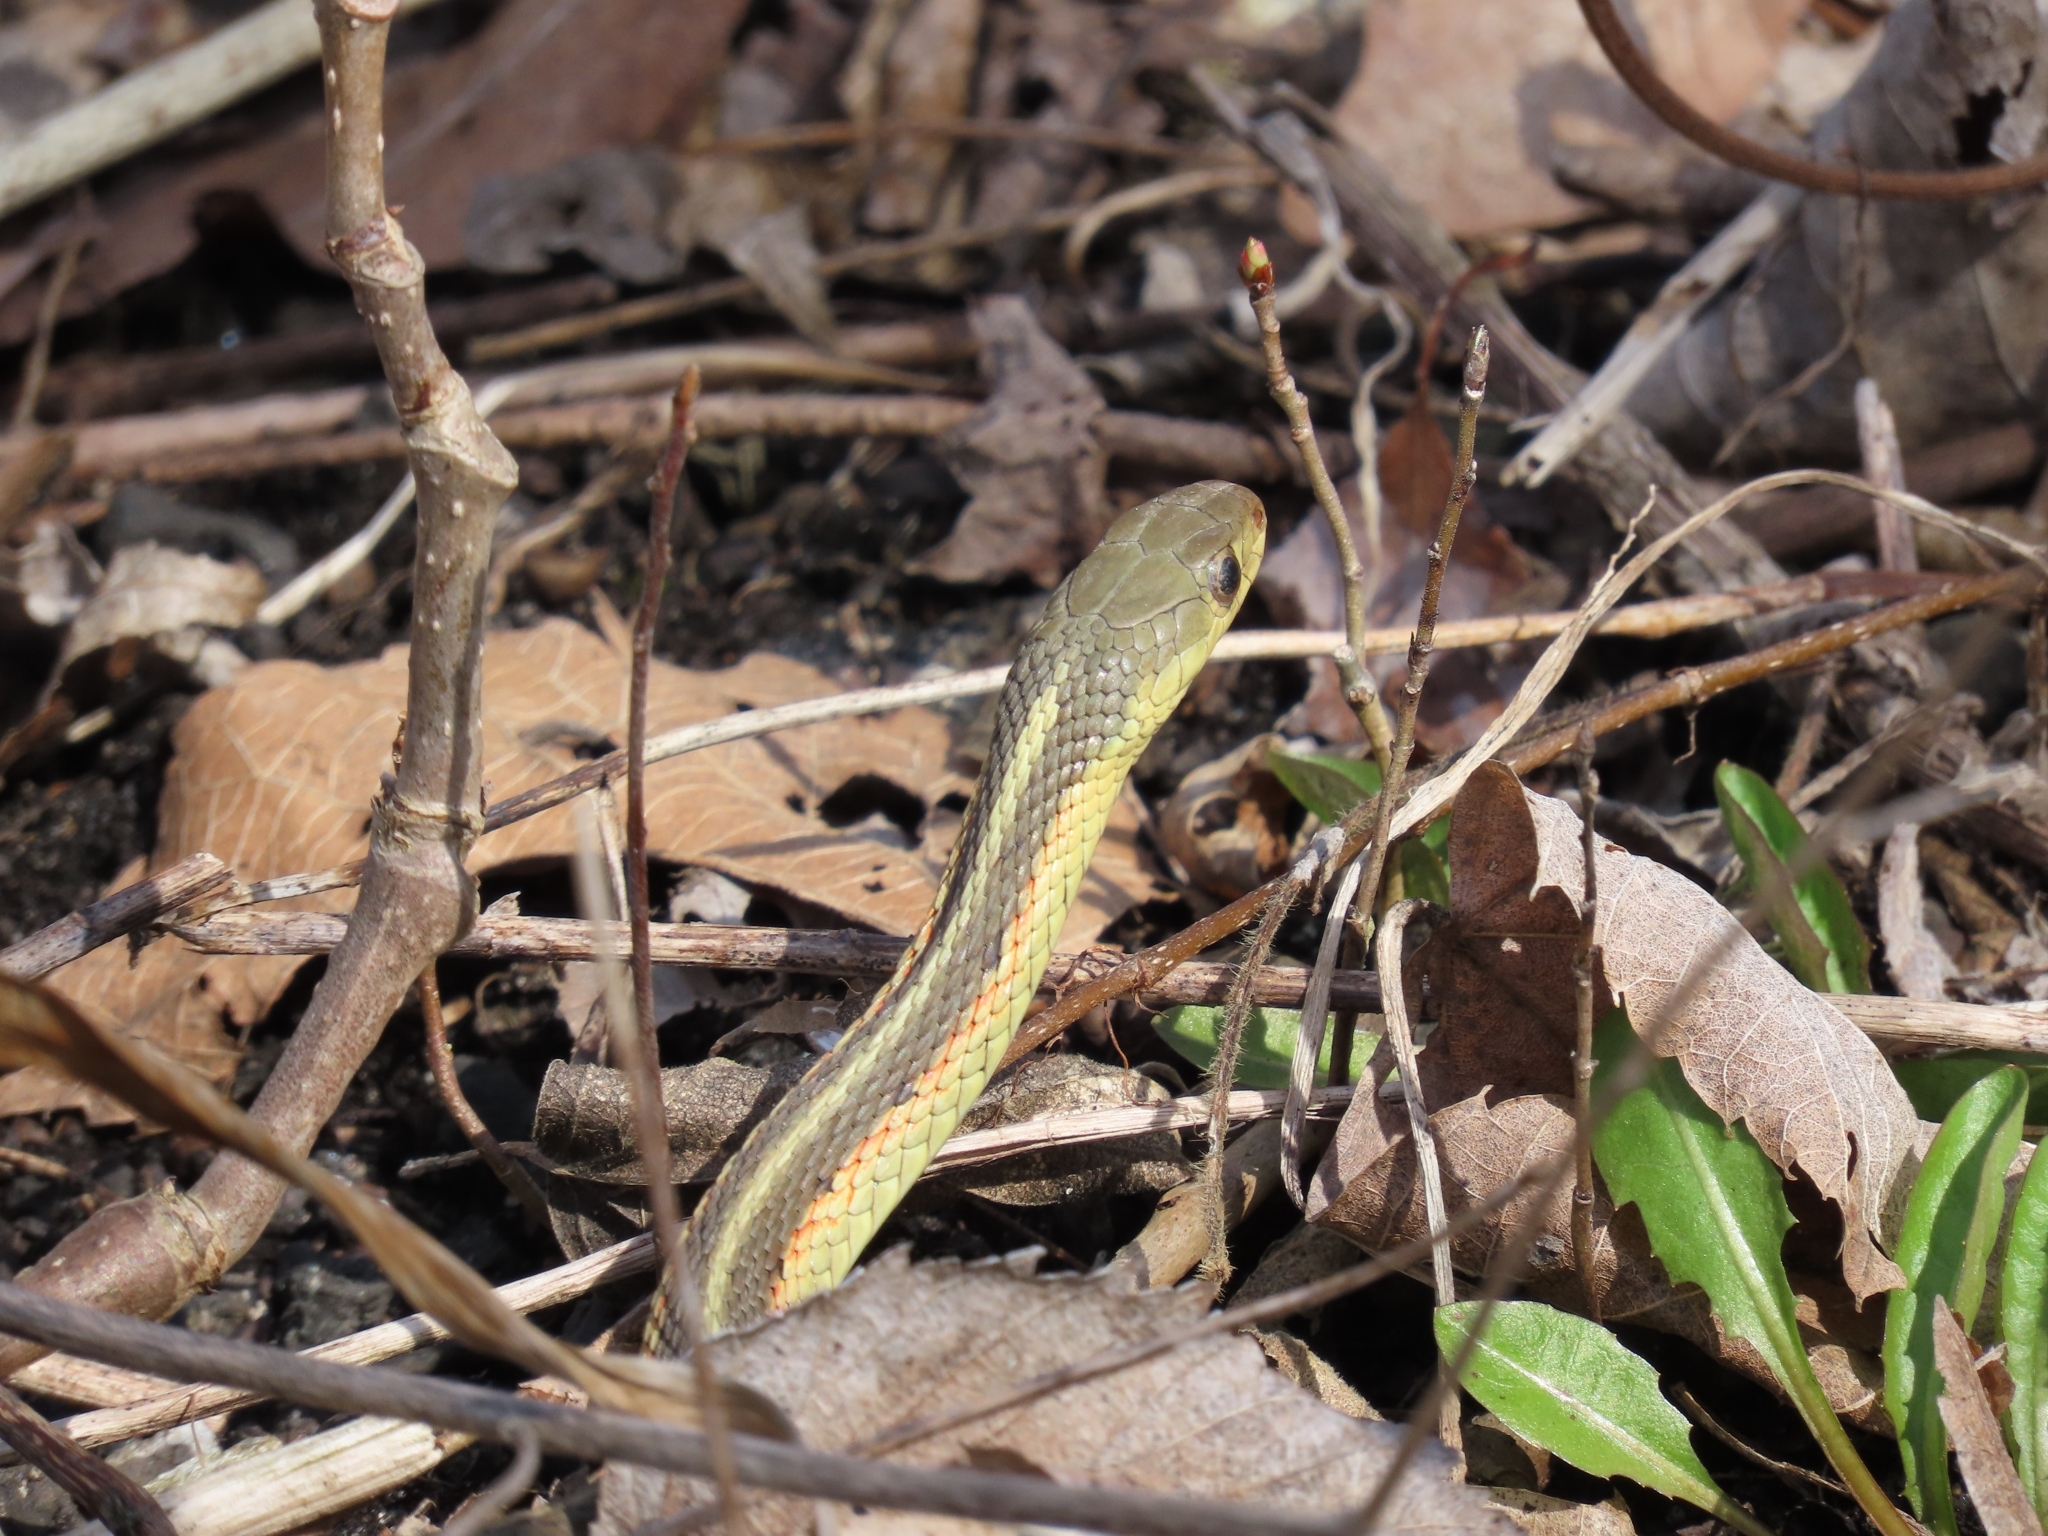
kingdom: Animalia
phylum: Chordata
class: Squamata
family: Colubridae
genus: Thamnophis
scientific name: Thamnophis sirtalis
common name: Common garter snake
